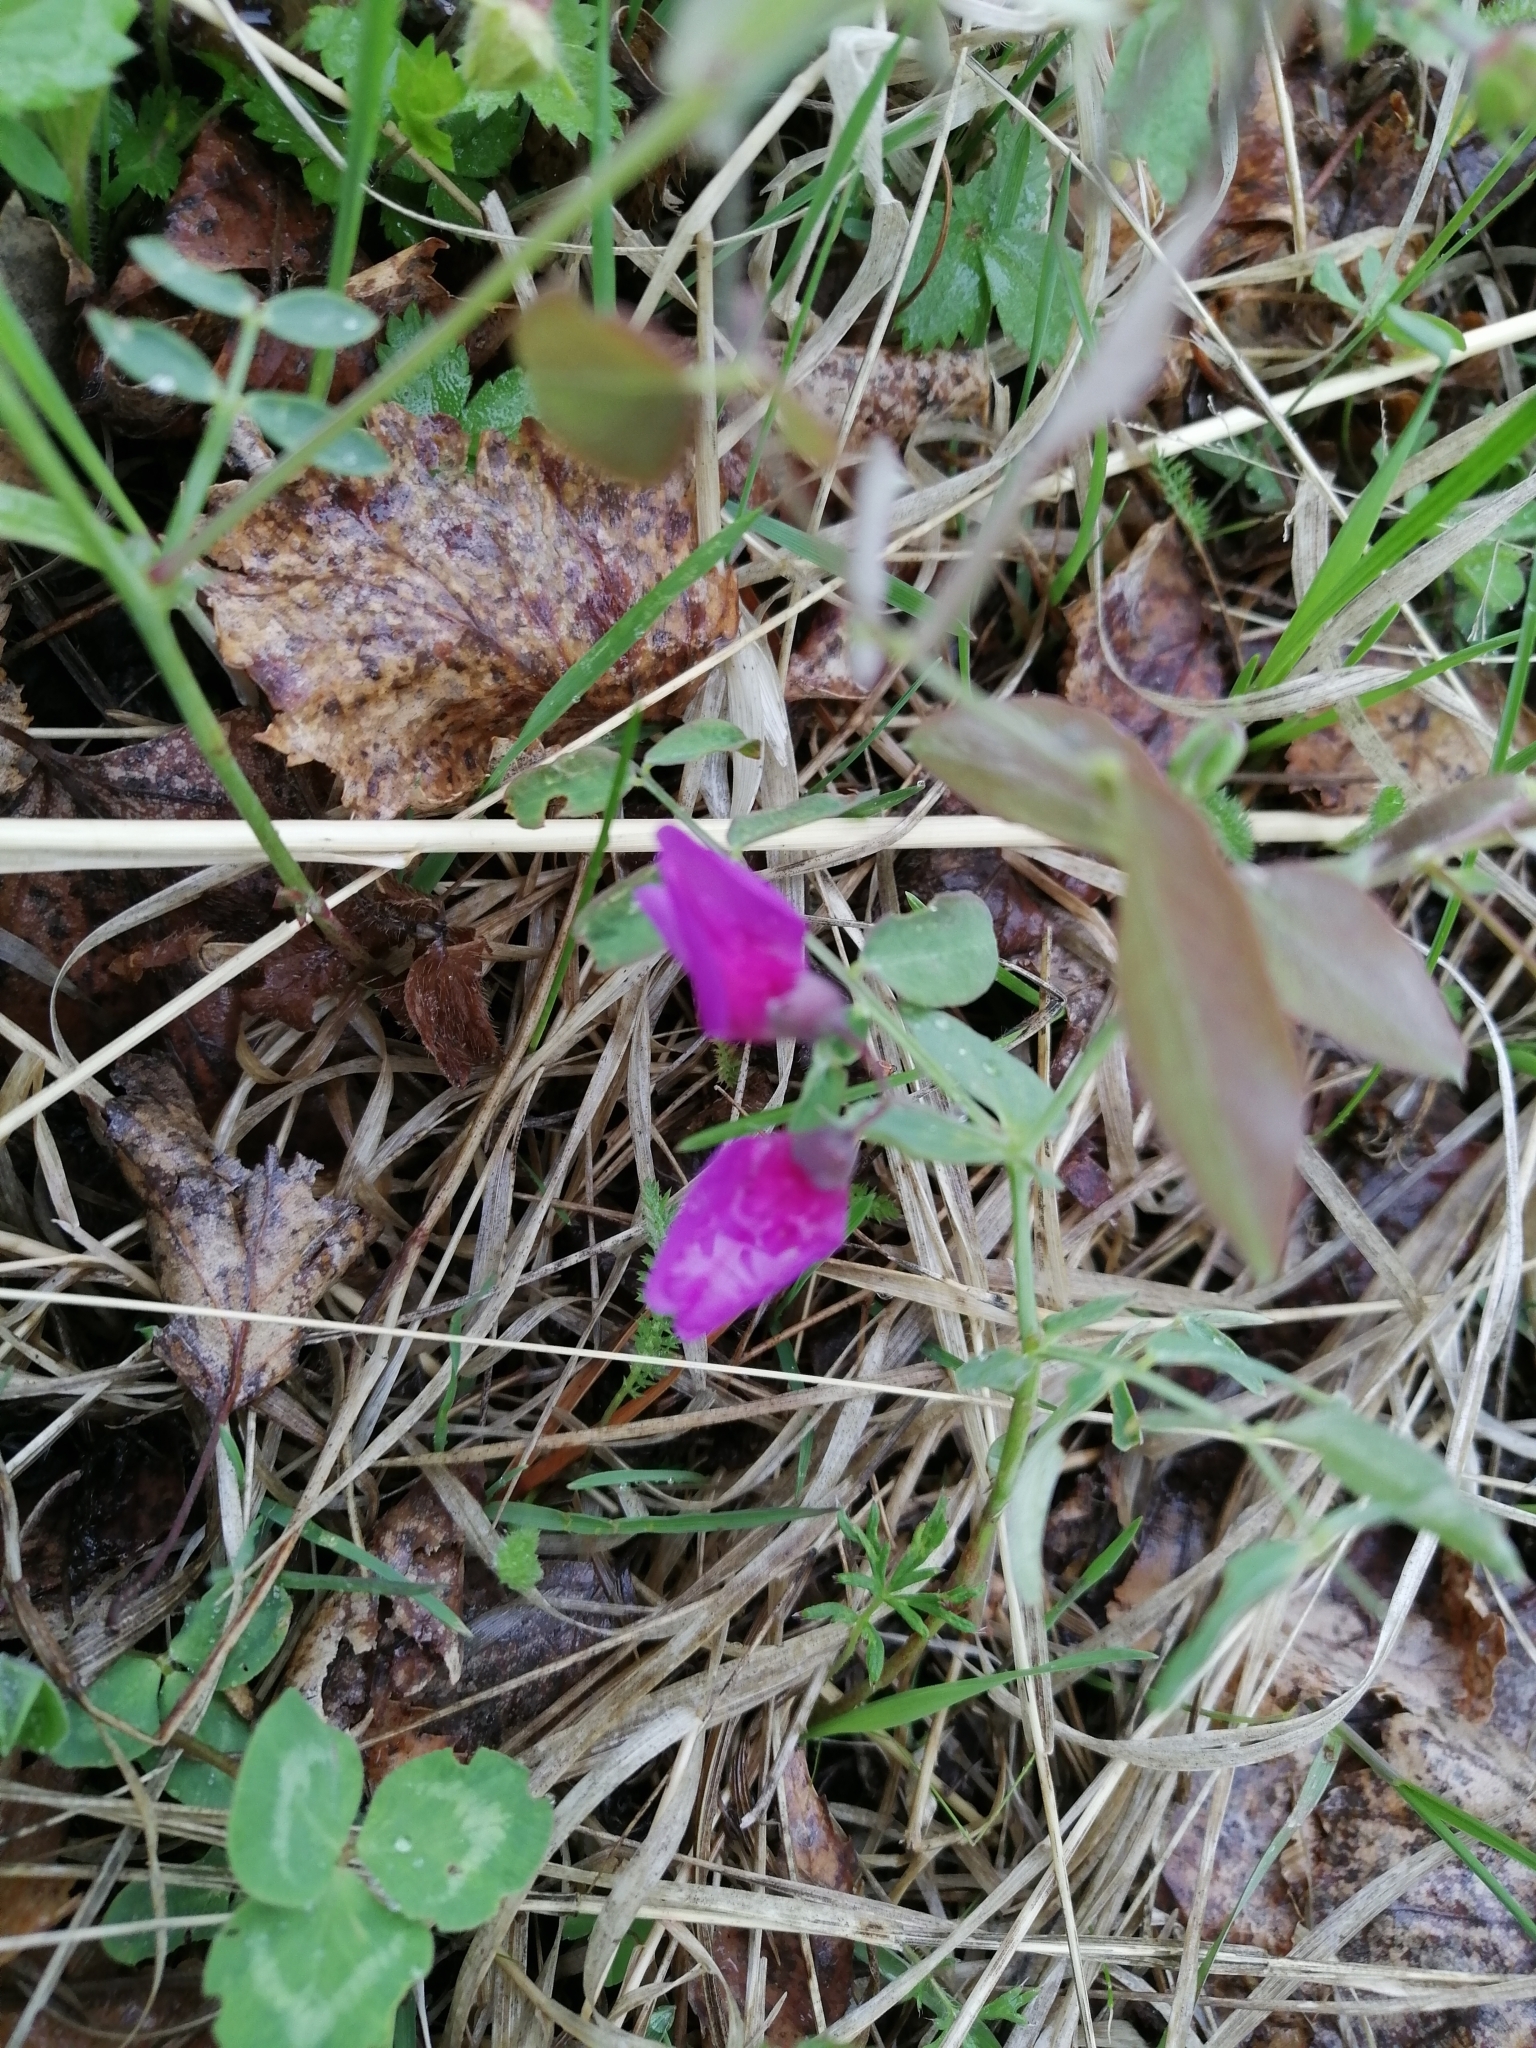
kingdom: Plantae
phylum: Tracheophyta
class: Magnoliopsida
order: Fabales
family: Fabaceae
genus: Lathyrus
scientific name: Lathyrus humilis
